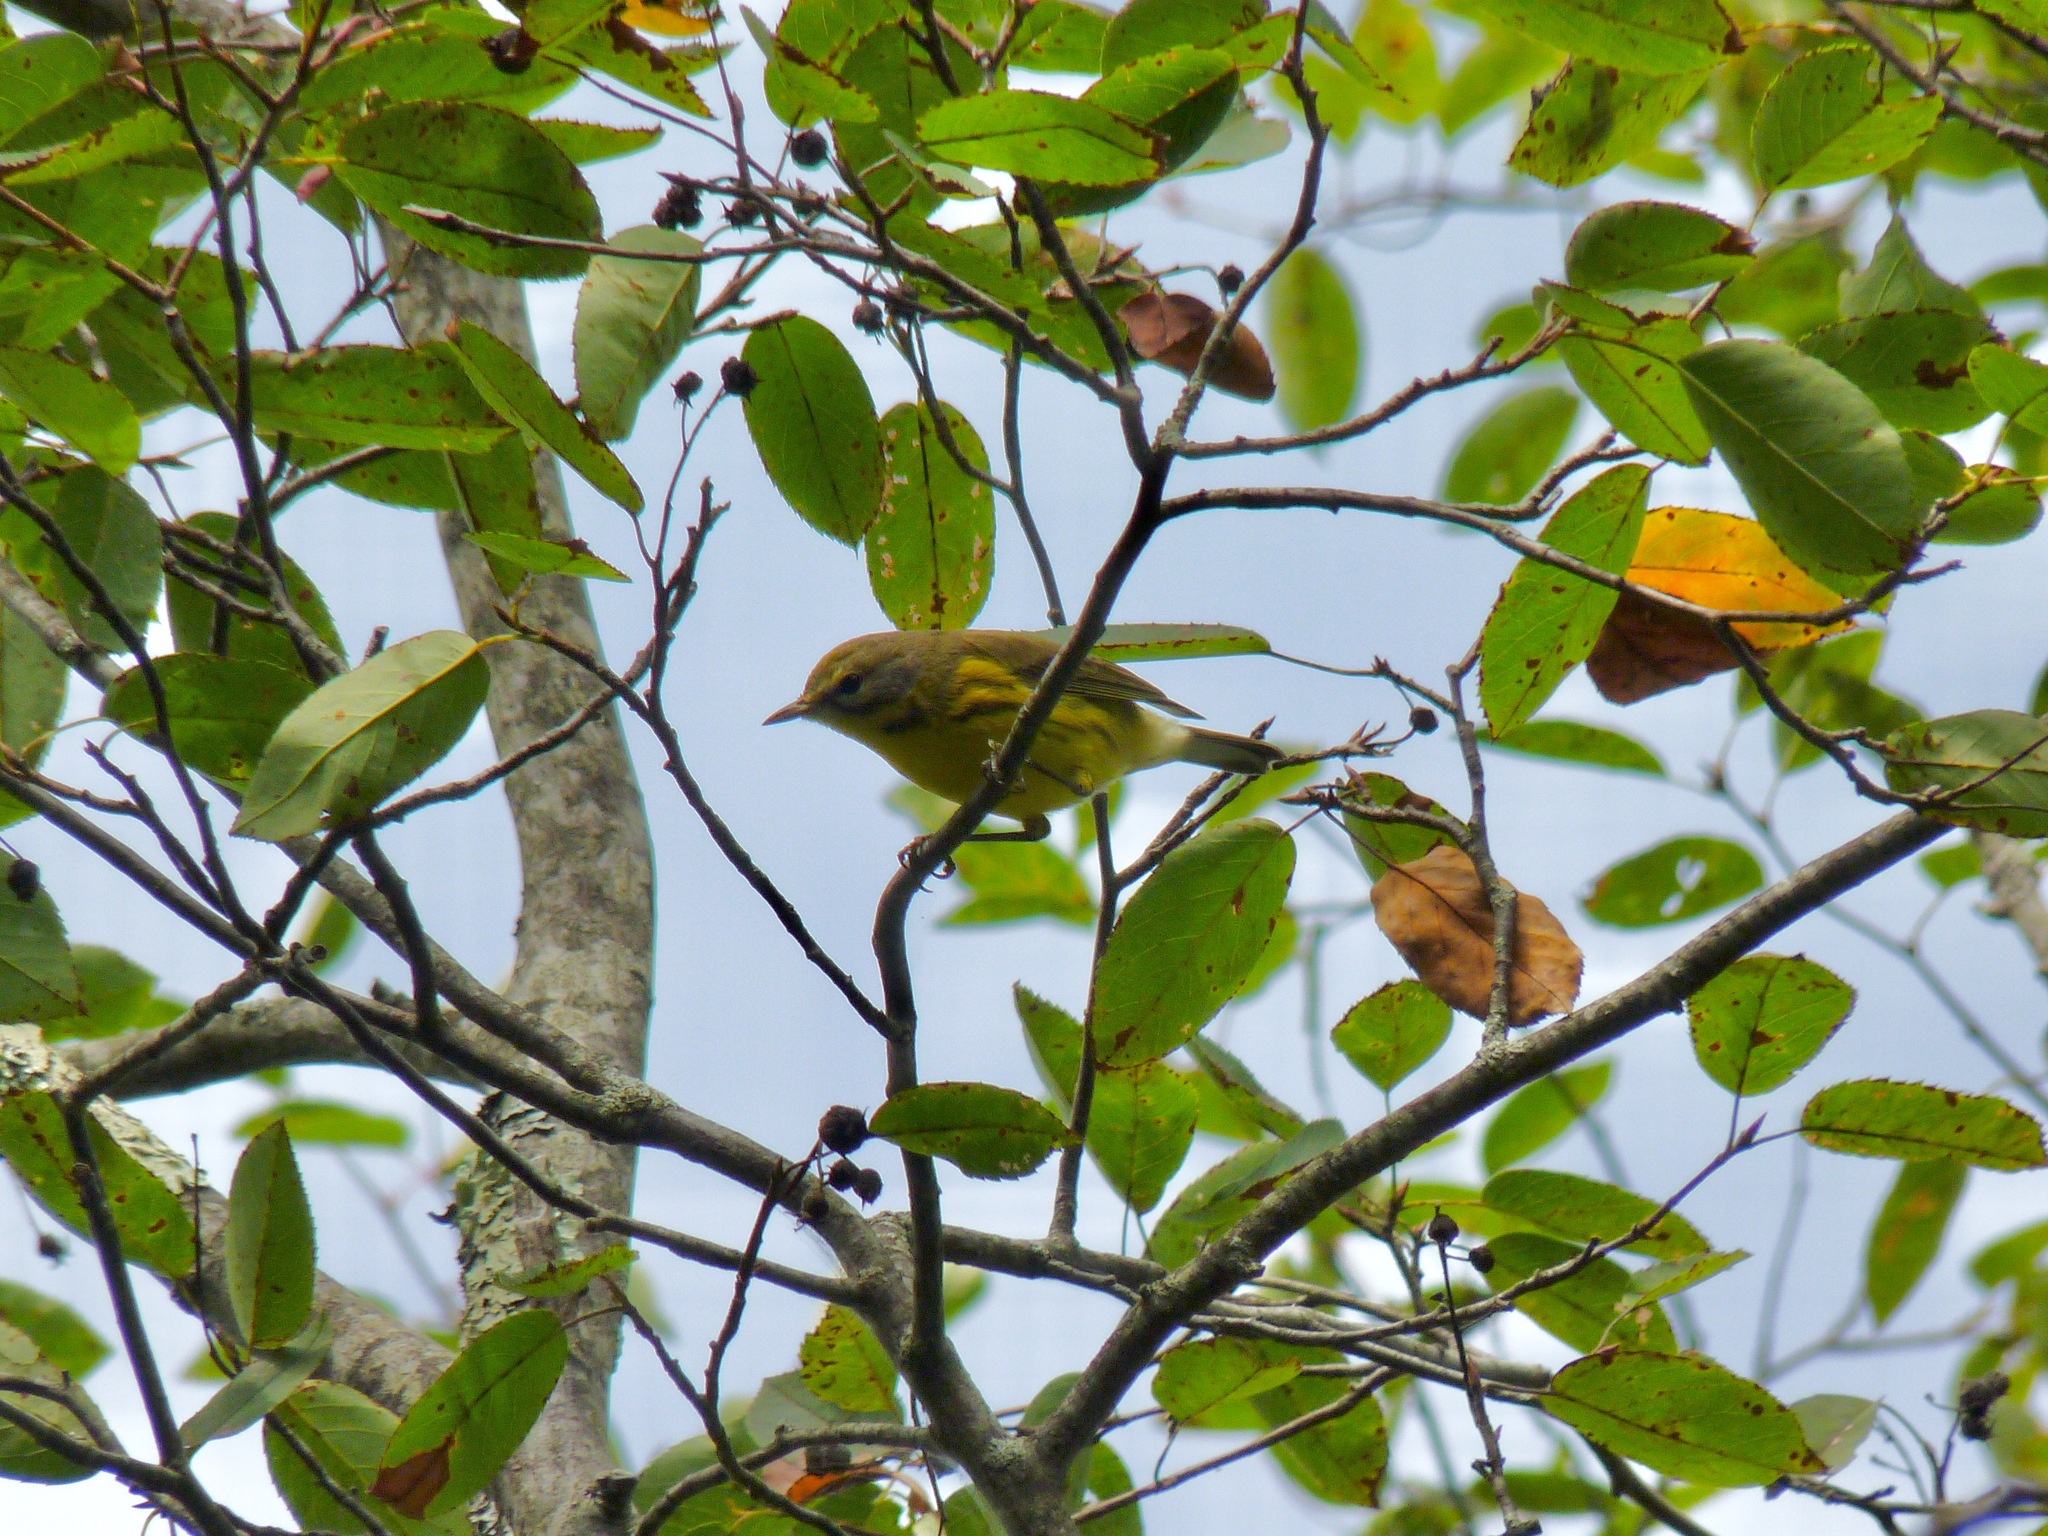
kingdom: Animalia
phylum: Chordata
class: Aves
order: Passeriformes
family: Parulidae
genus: Setophaga
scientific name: Setophaga discolor
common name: Prairie warbler
